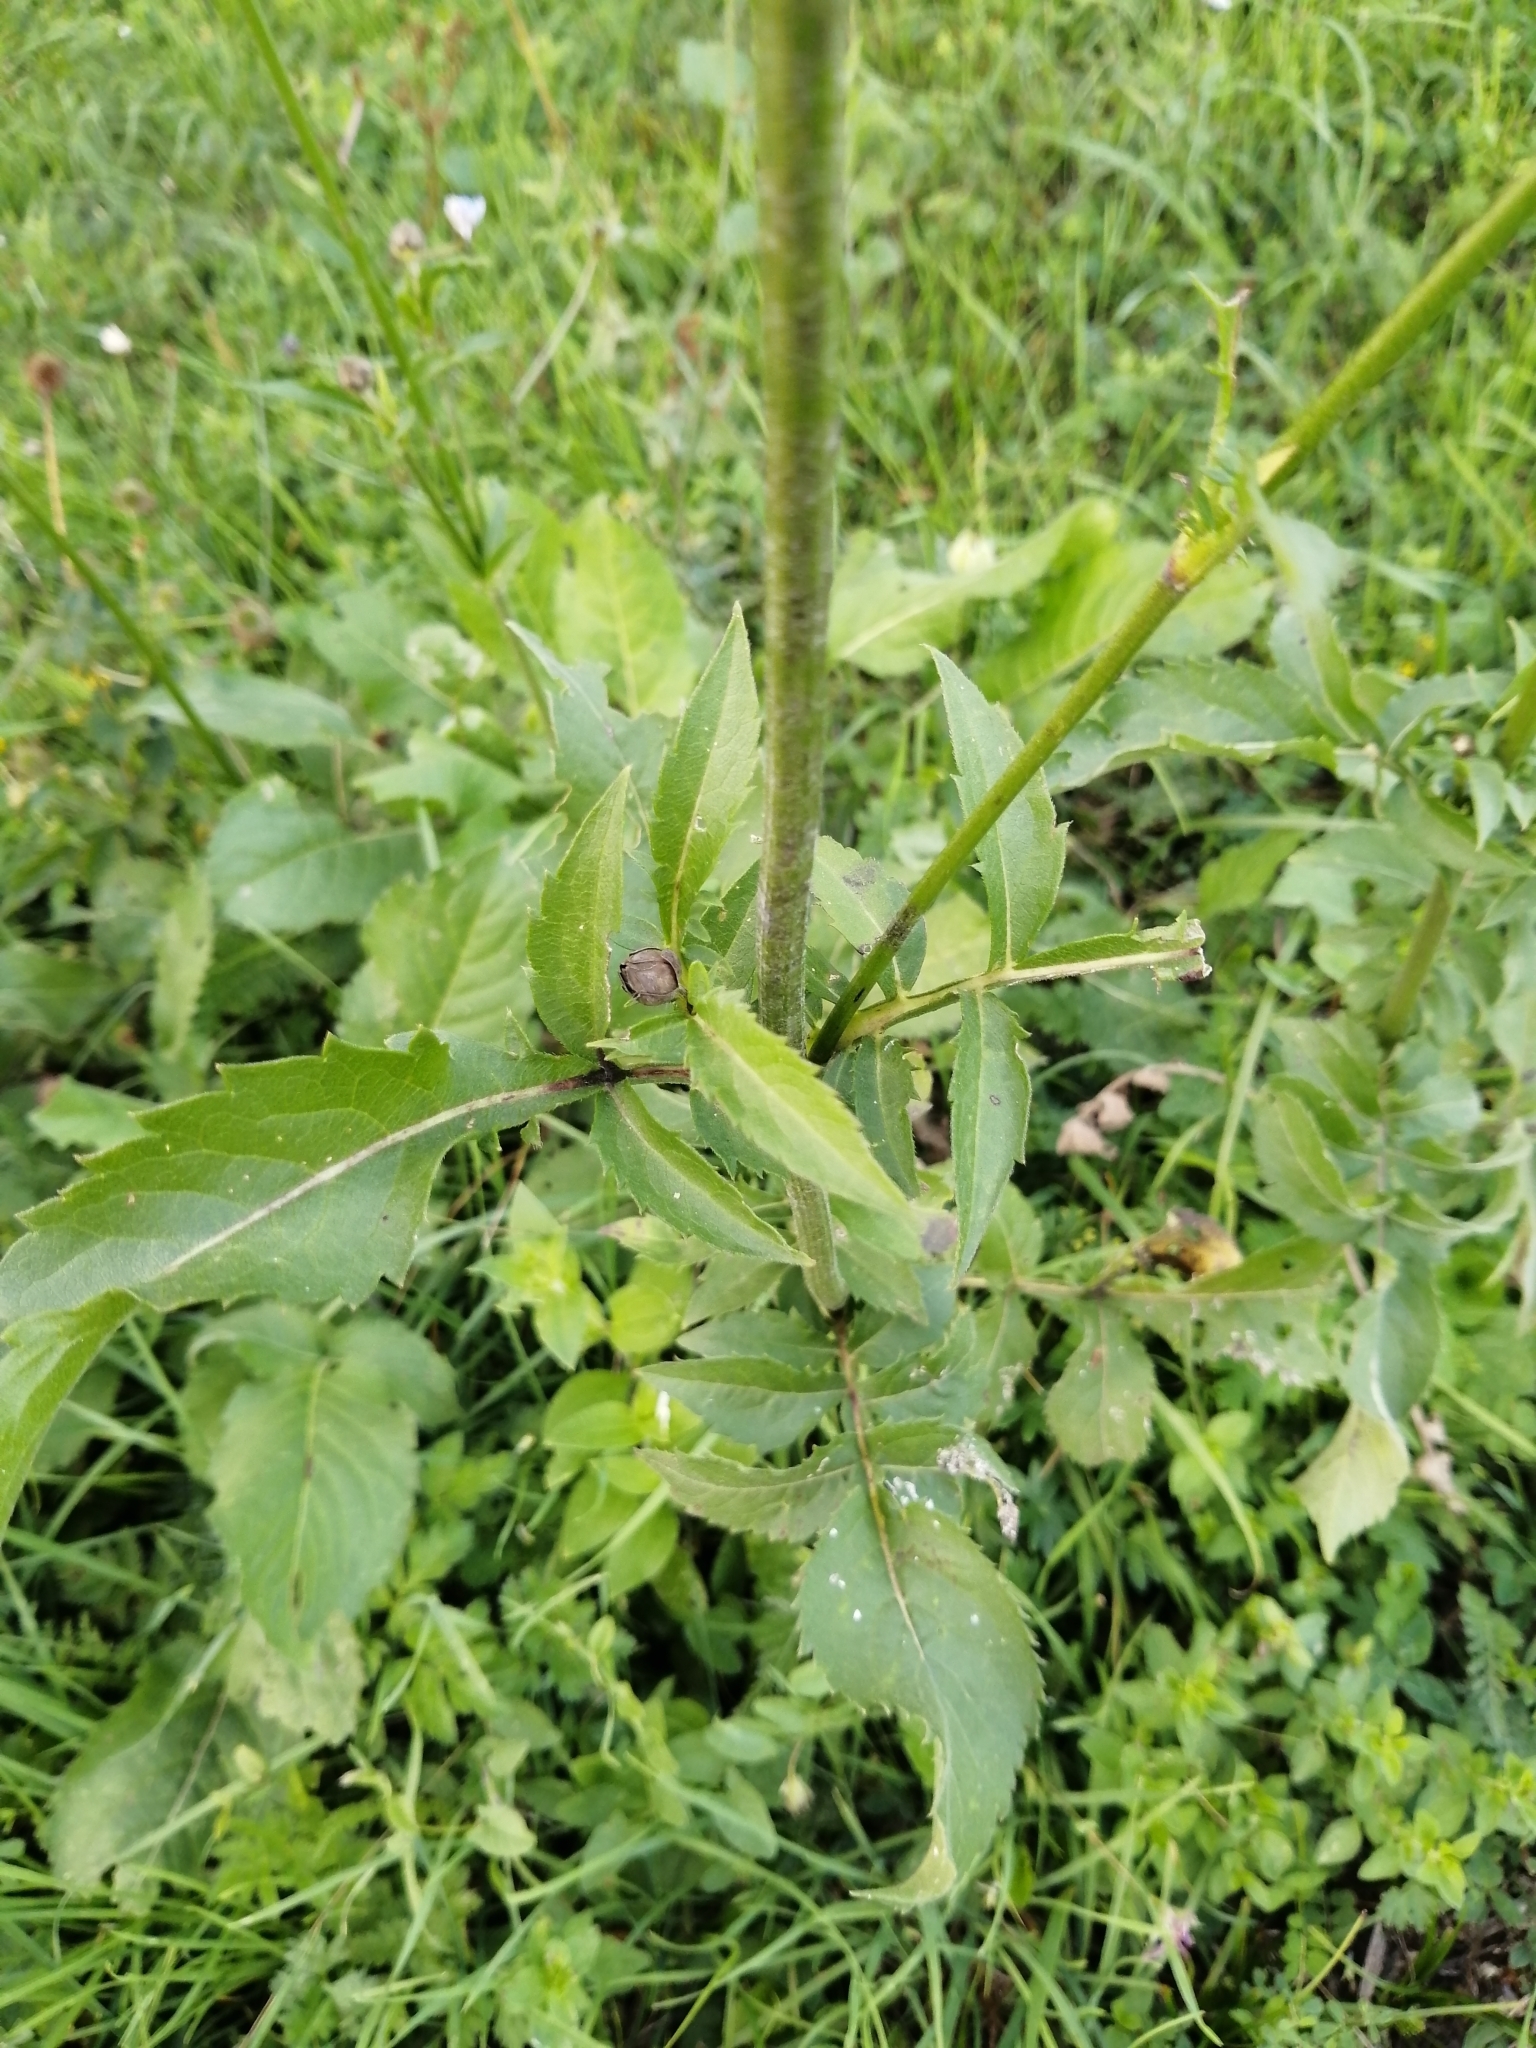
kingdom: Plantae
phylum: Tracheophyta
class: Magnoliopsida
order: Dipsacales
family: Caprifoliaceae
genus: Cephalaria
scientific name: Cephalaria gigantea
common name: Tatarian cephalaria
